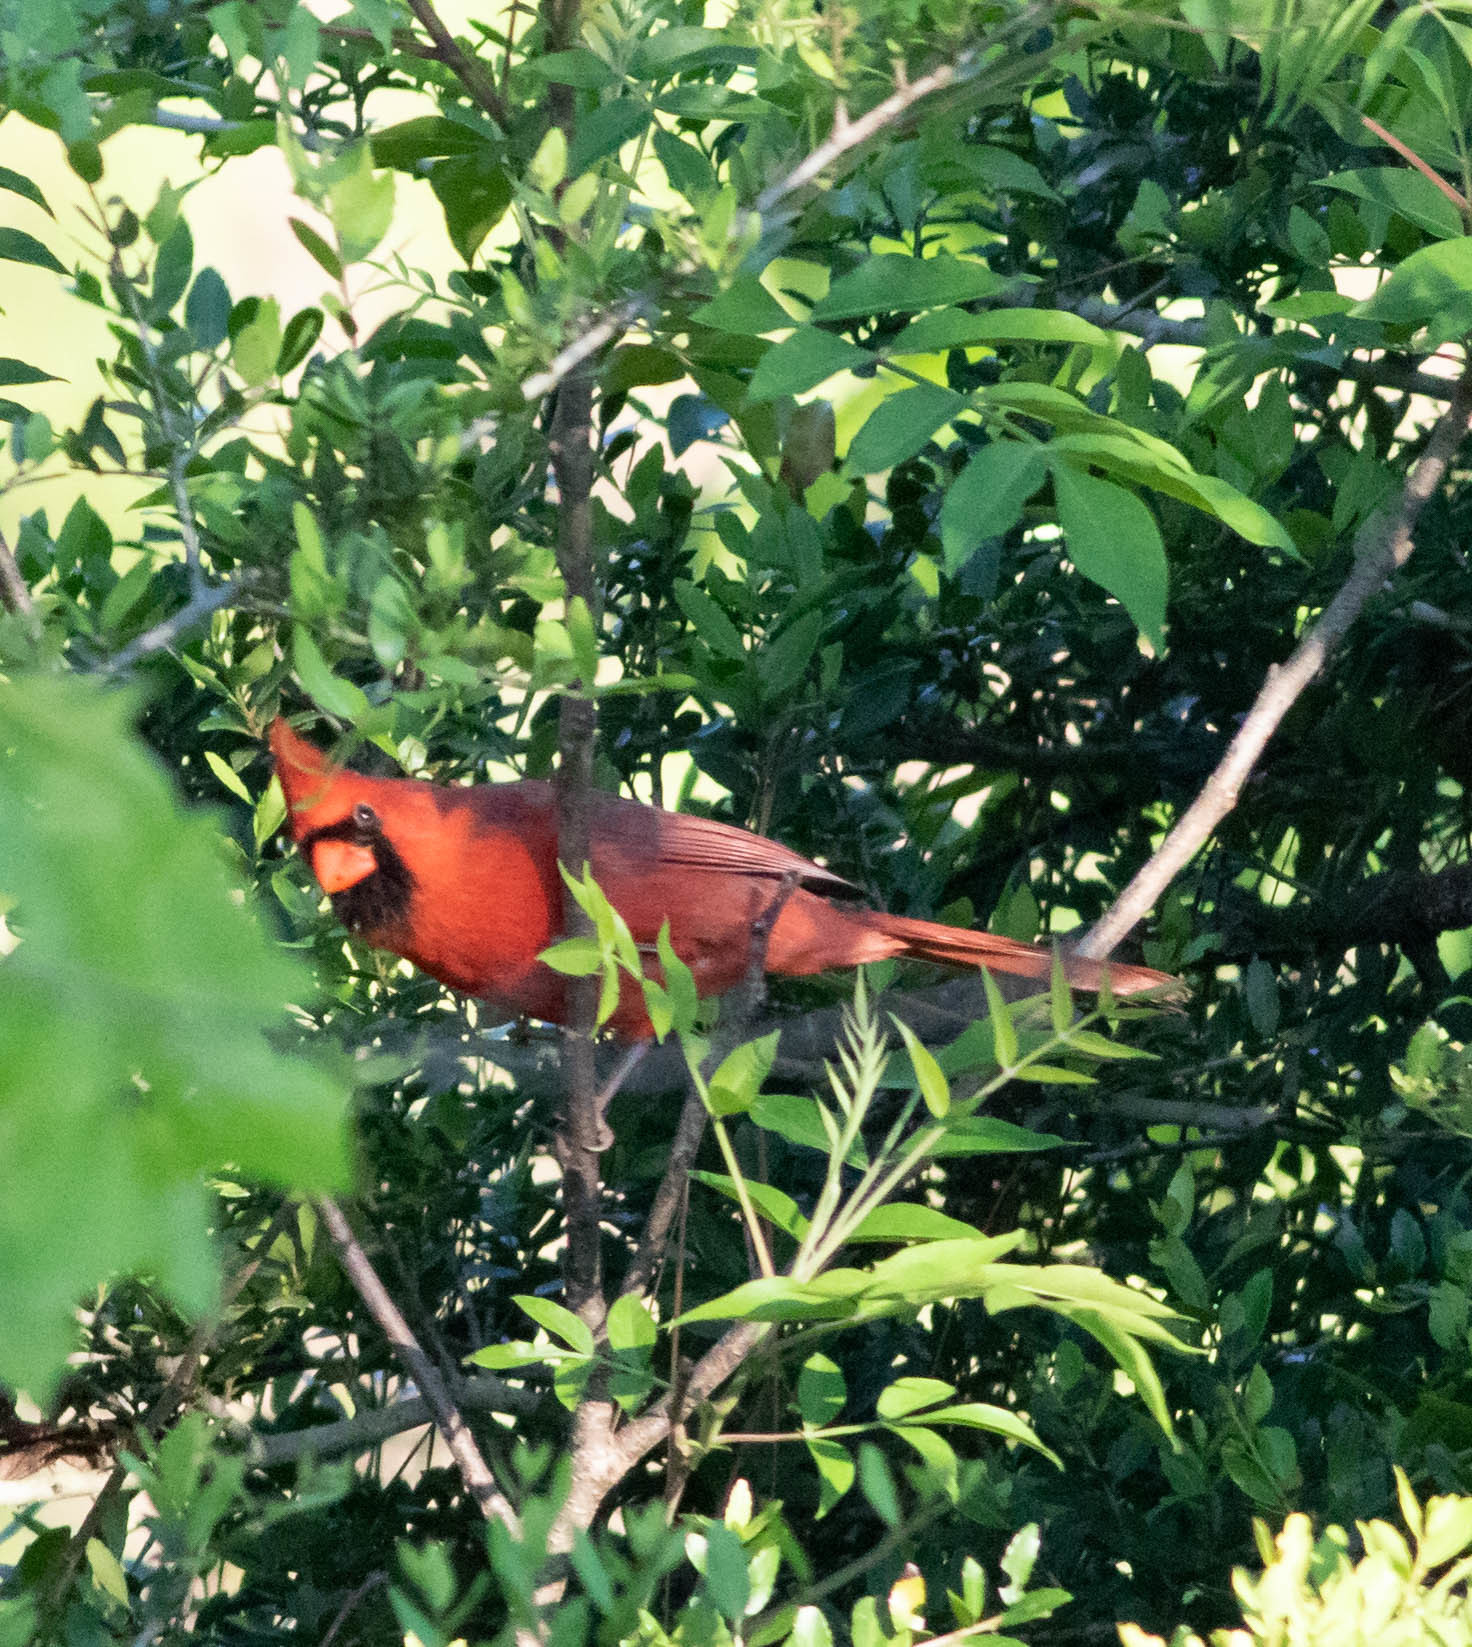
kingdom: Animalia
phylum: Chordata
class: Aves
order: Passeriformes
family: Cardinalidae
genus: Cardinalis
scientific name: Cardinalis cardinalis
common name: Northern cardinal
